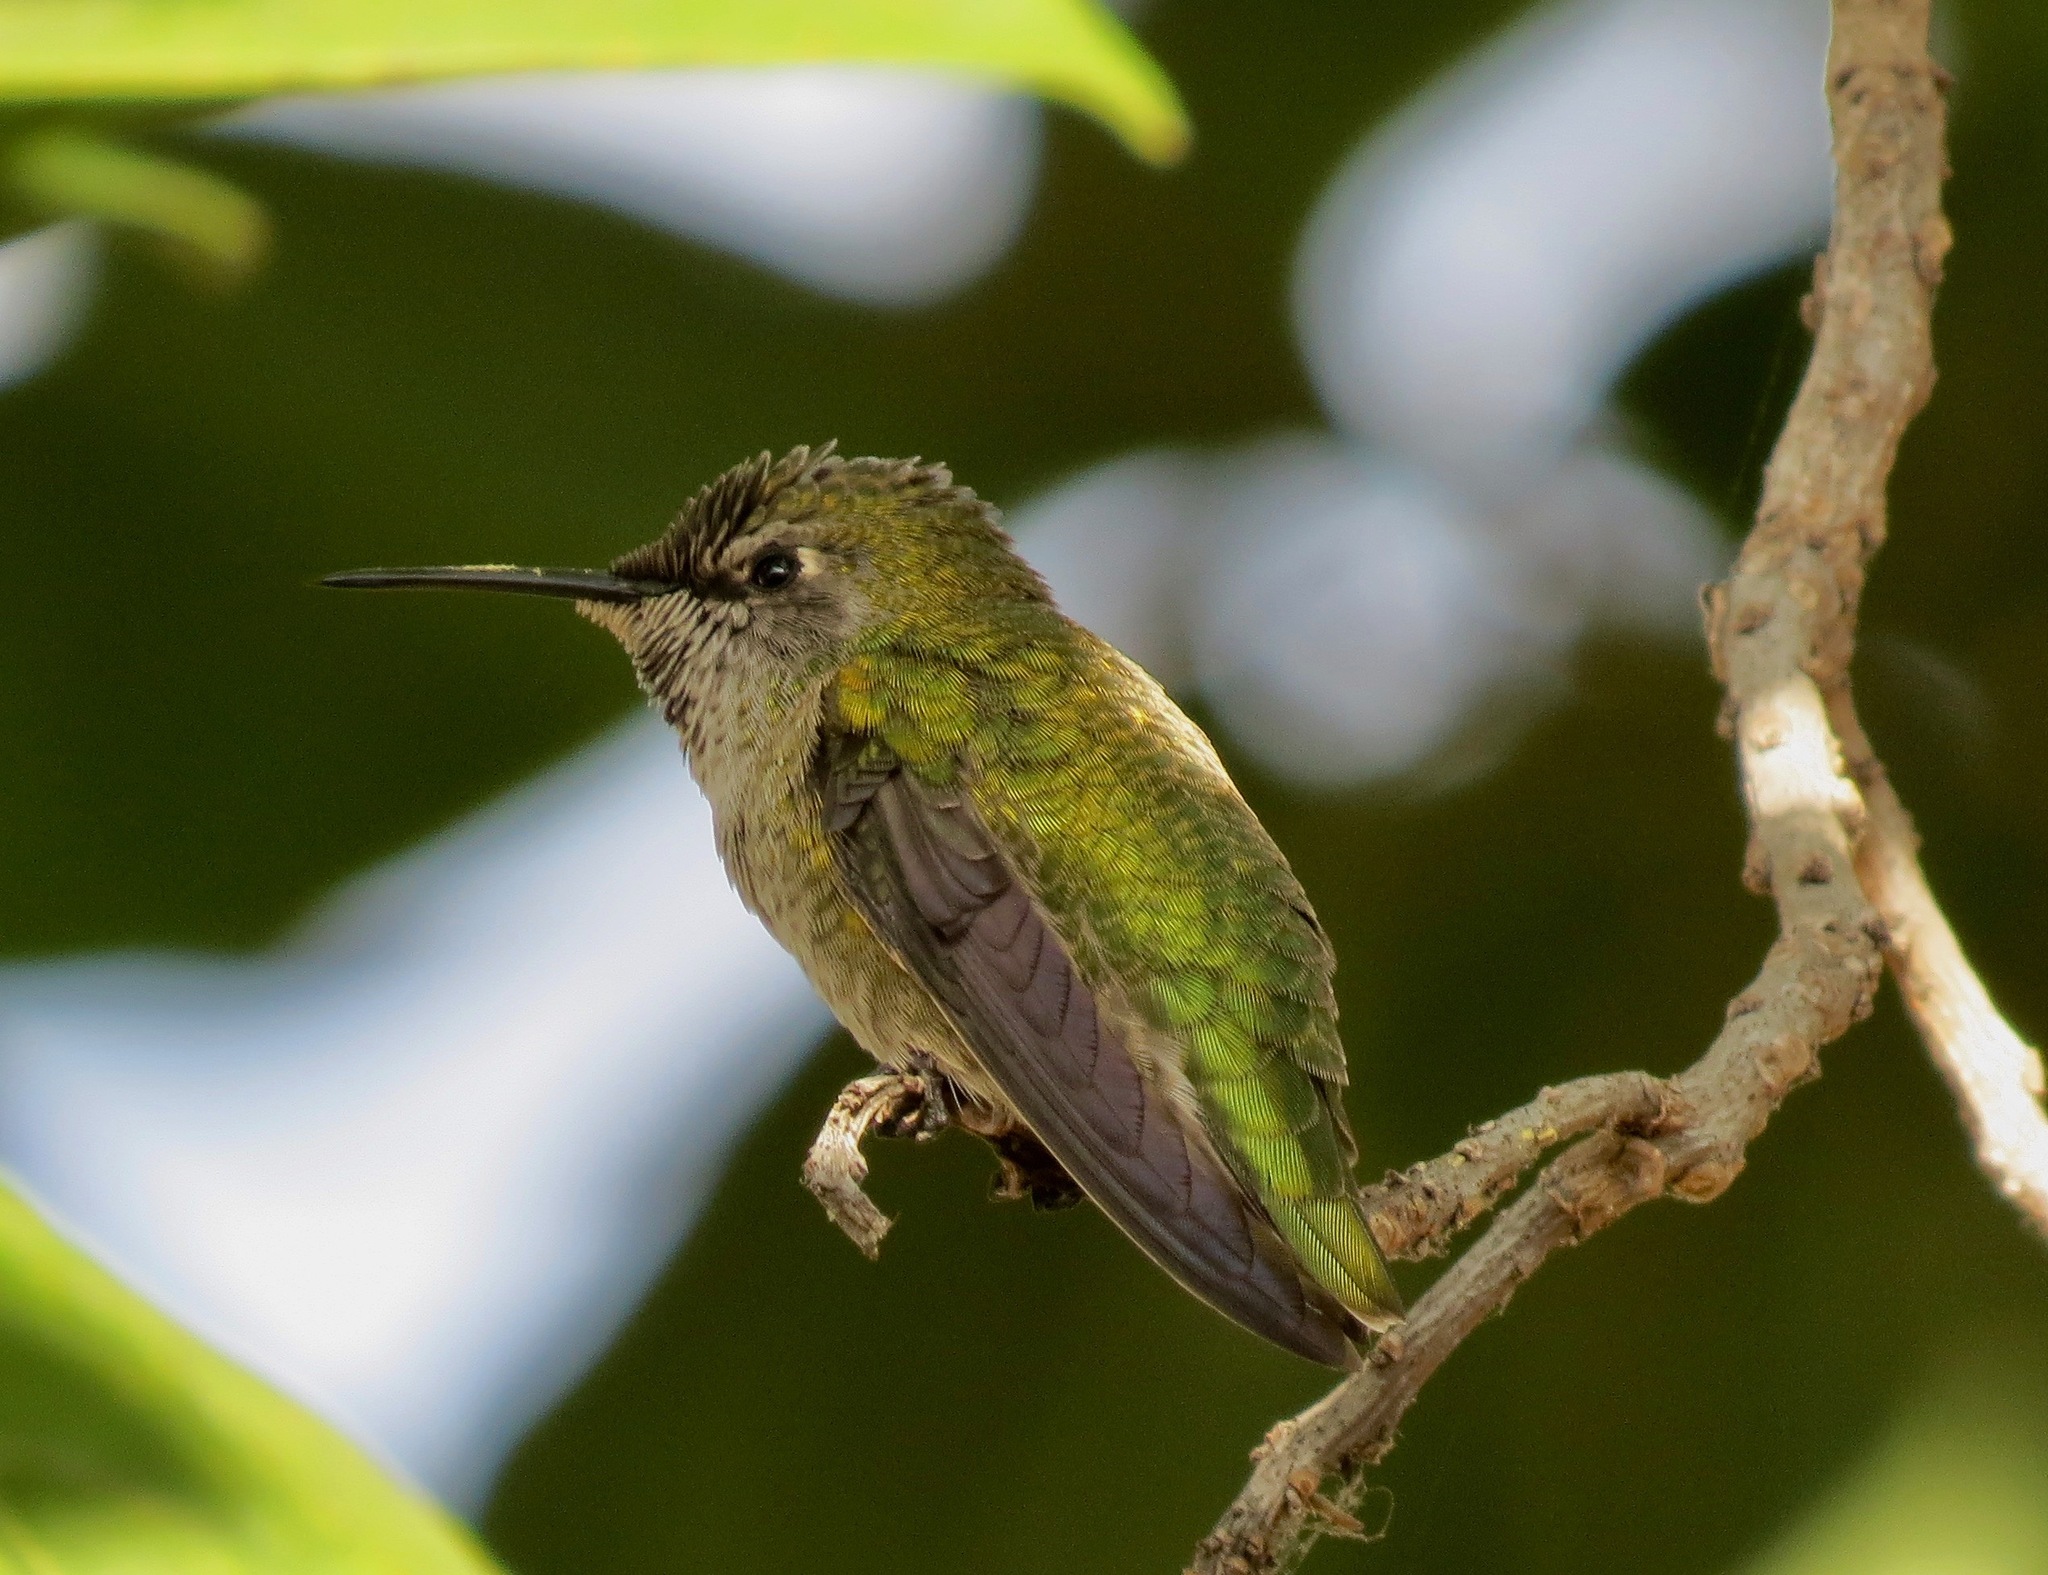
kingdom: Animalia
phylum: Chordata
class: Aves
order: Apodiformes
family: Trochilidae
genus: Calypte
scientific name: Calypte anna
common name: Anna's hummingbird
